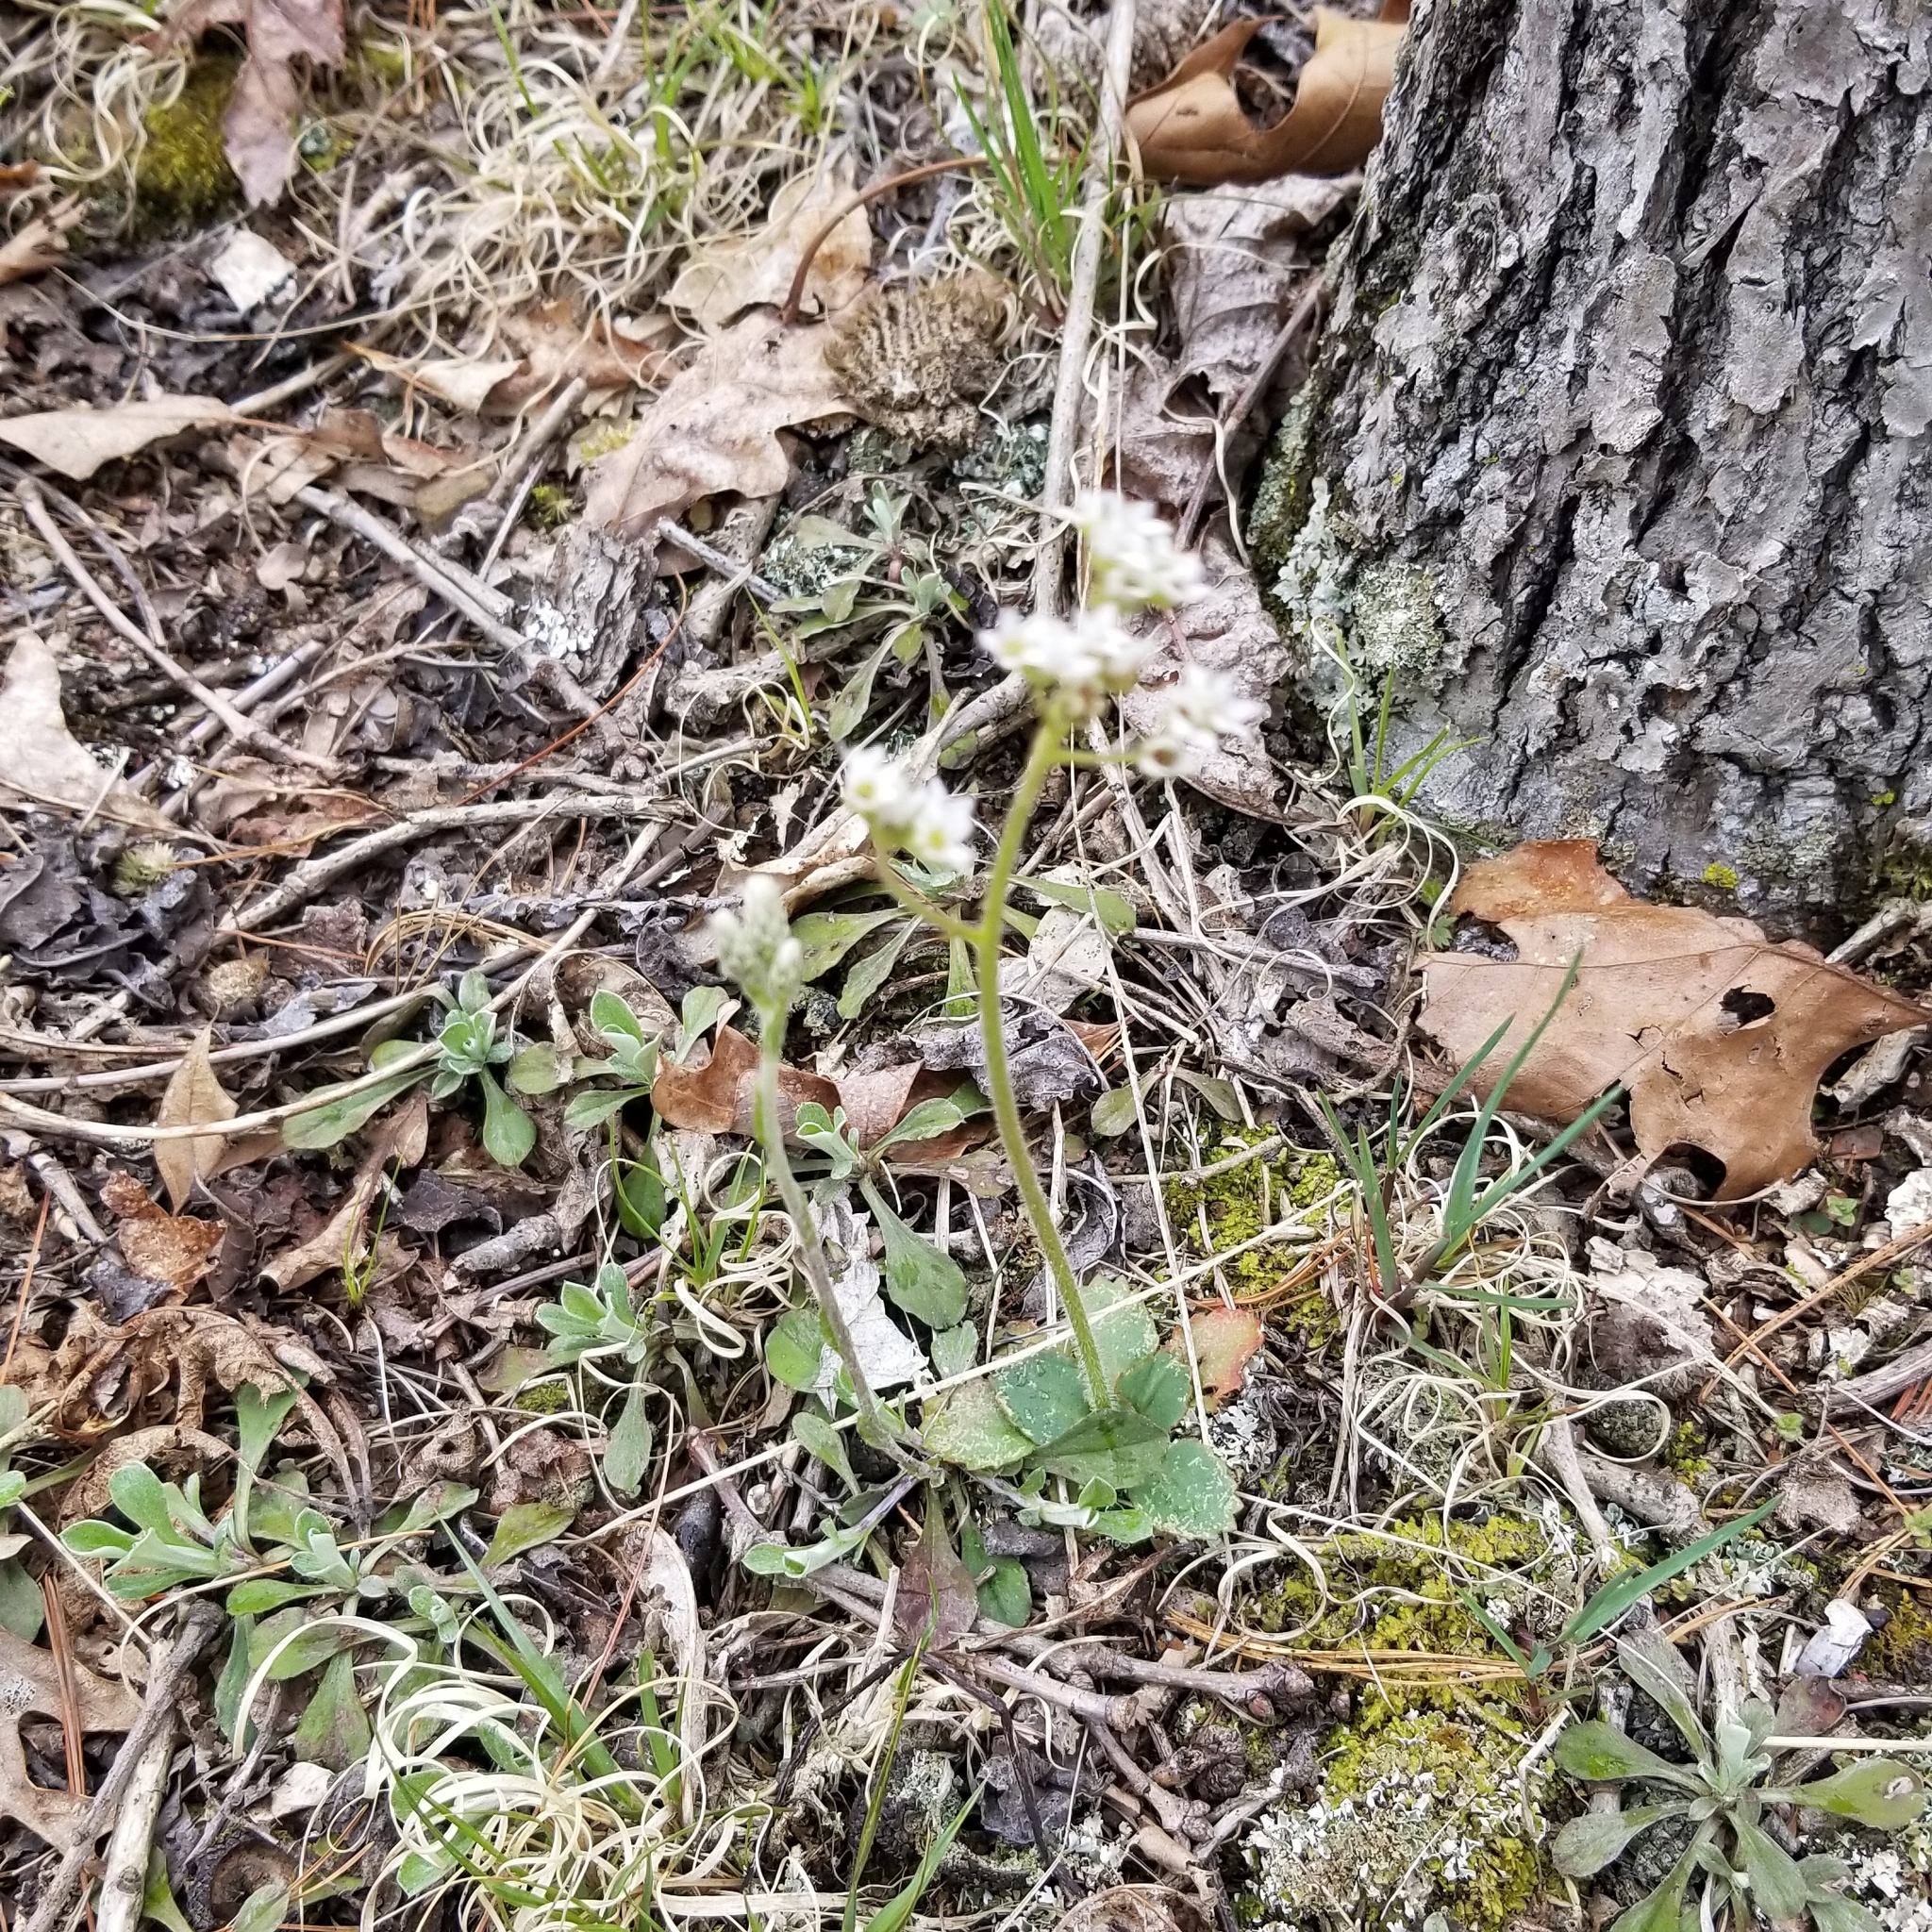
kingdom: Plantae
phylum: Tracheophyta
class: Magnoliopsida
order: Saxifragales
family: Saxifragaceae
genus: Micranthes
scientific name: Micranthes virginiensis
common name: Early saxifrage
